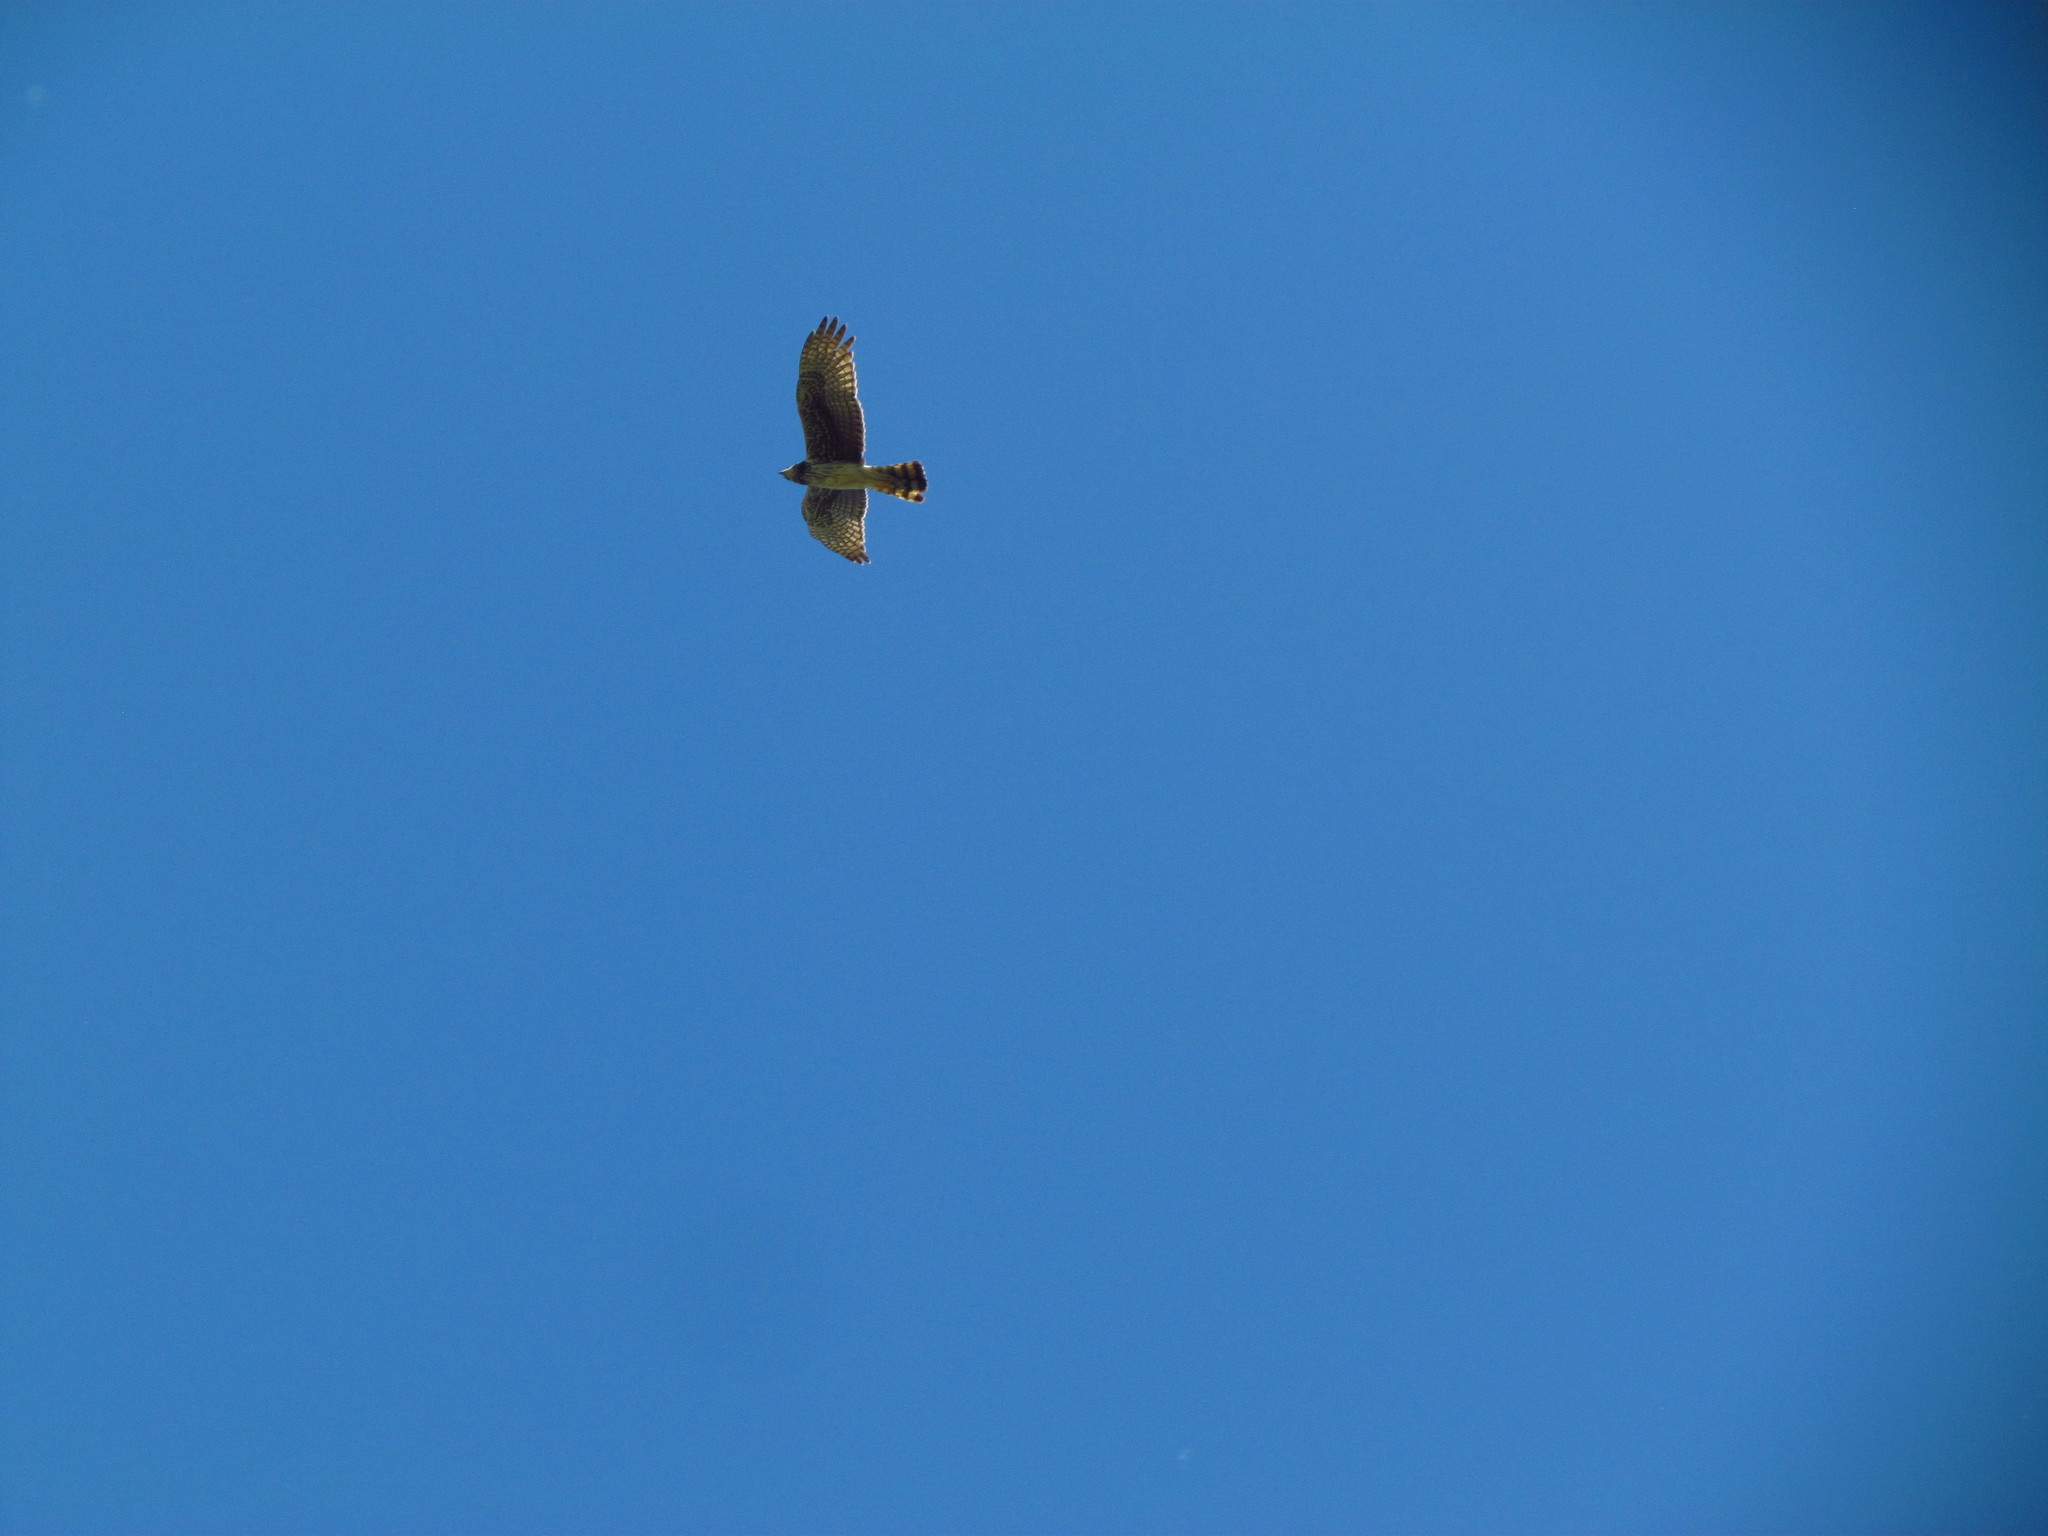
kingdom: Animalia
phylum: Chordata
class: Aves
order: Accipitriformes
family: Accipitridae
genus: Circus
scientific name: Circus buffoni
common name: Long-winged harrier
